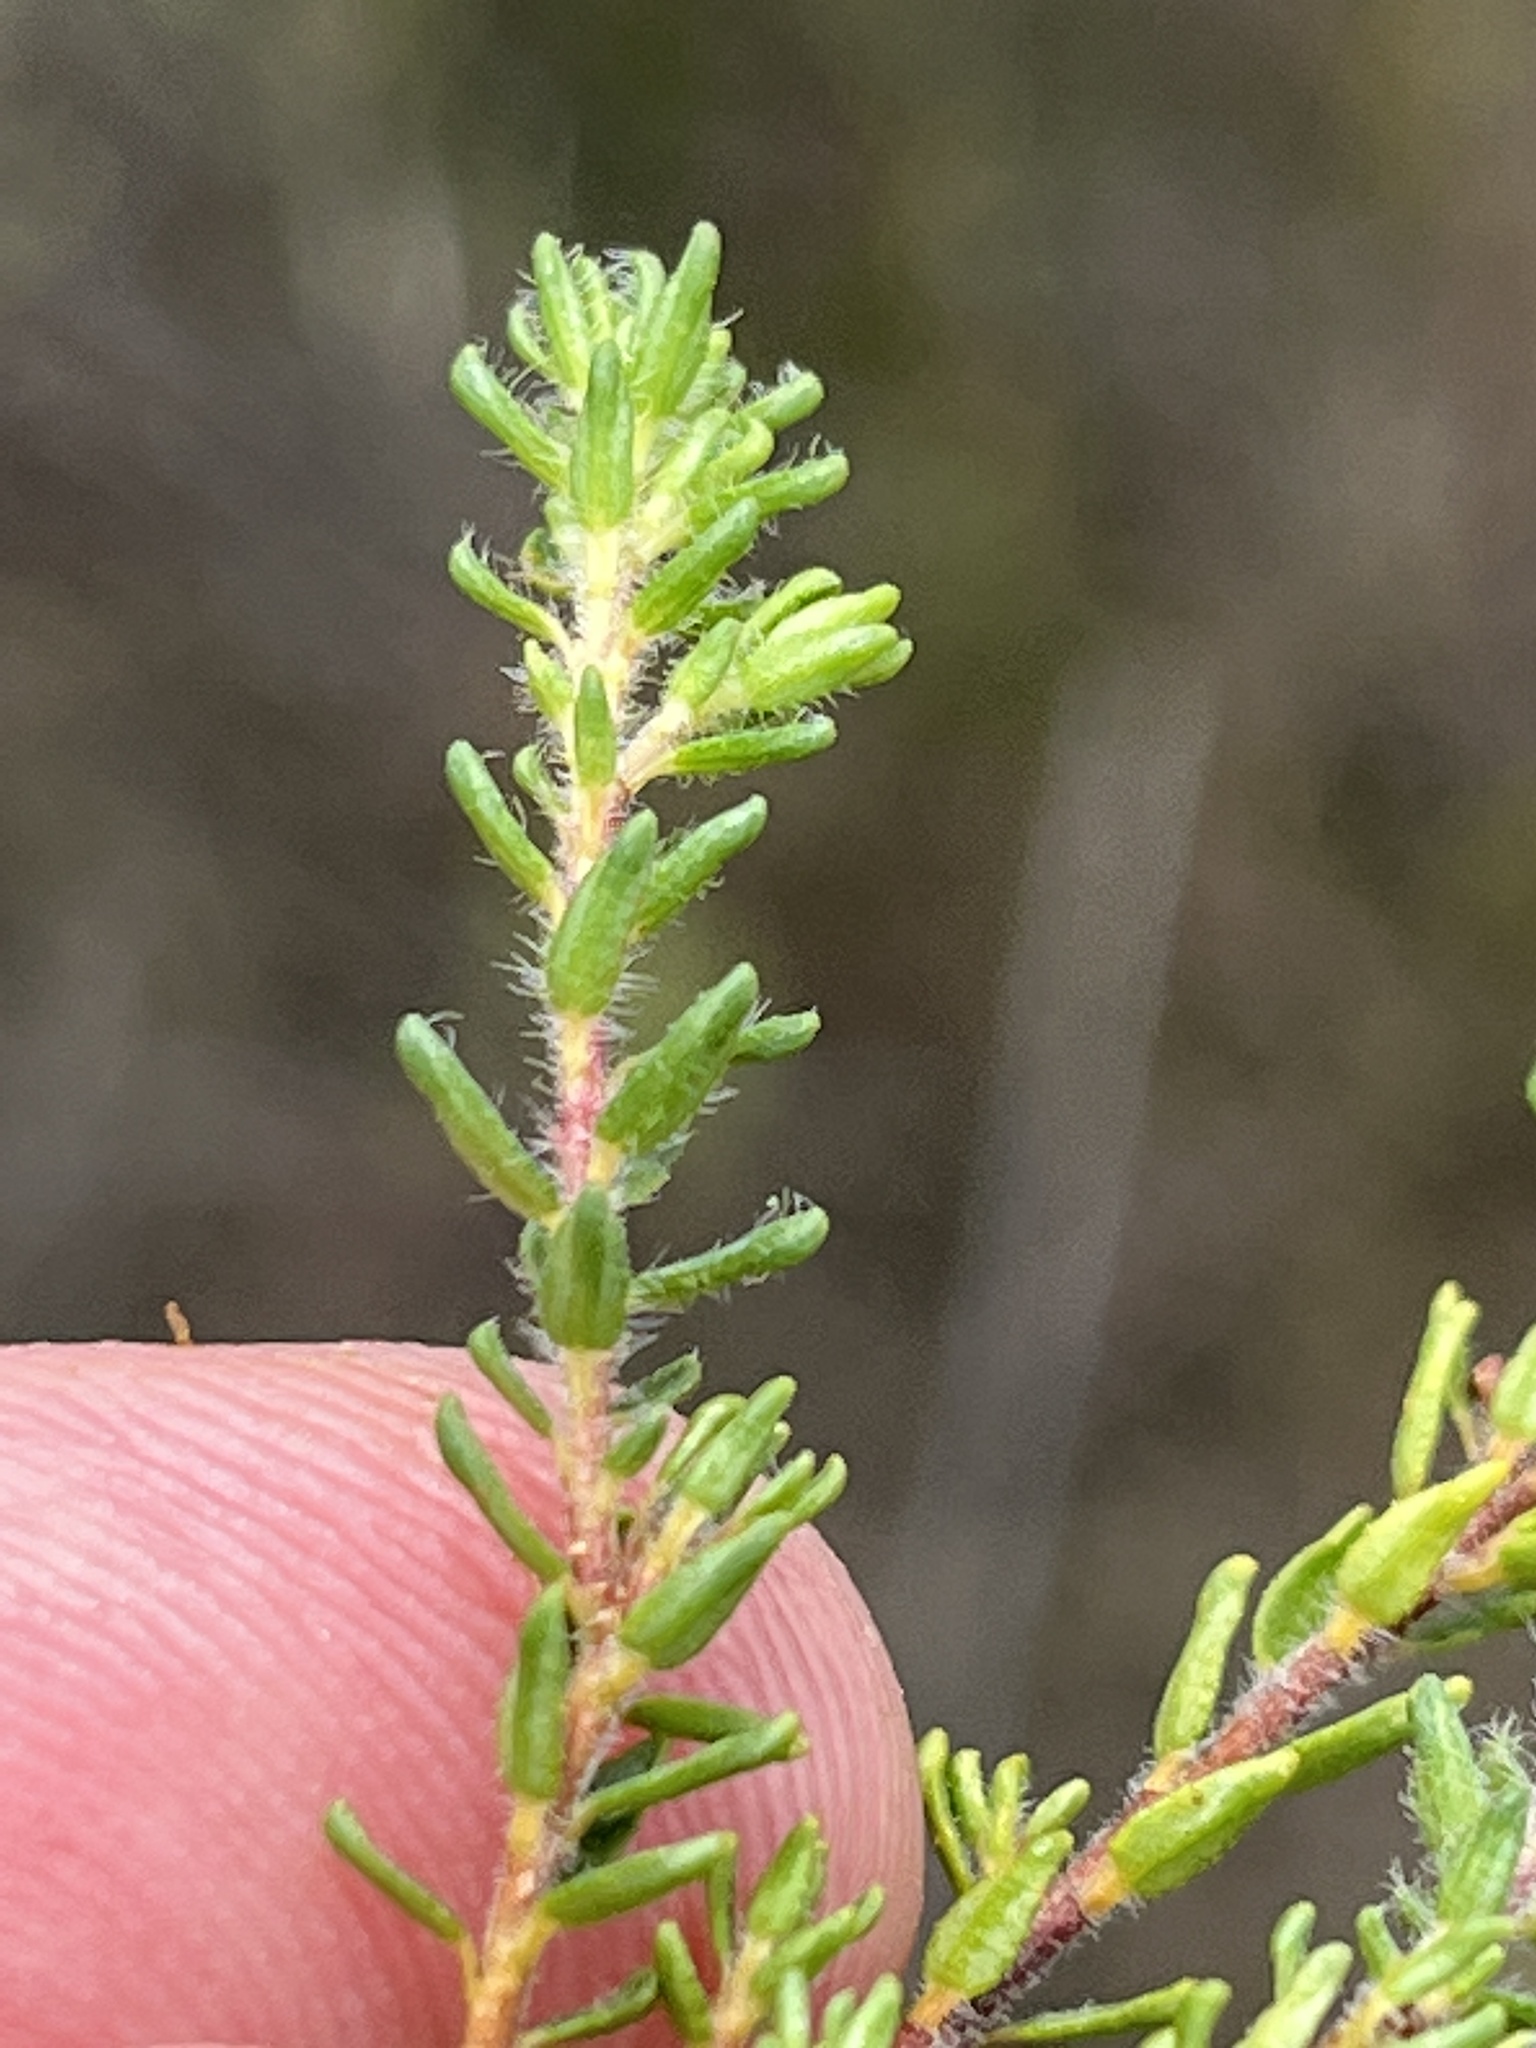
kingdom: Plantae
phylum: Tracheophyta
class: Magnoliopsida
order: Sapindales
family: Rutaceae
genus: Agathosma
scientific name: Agathosma serpyllacea
